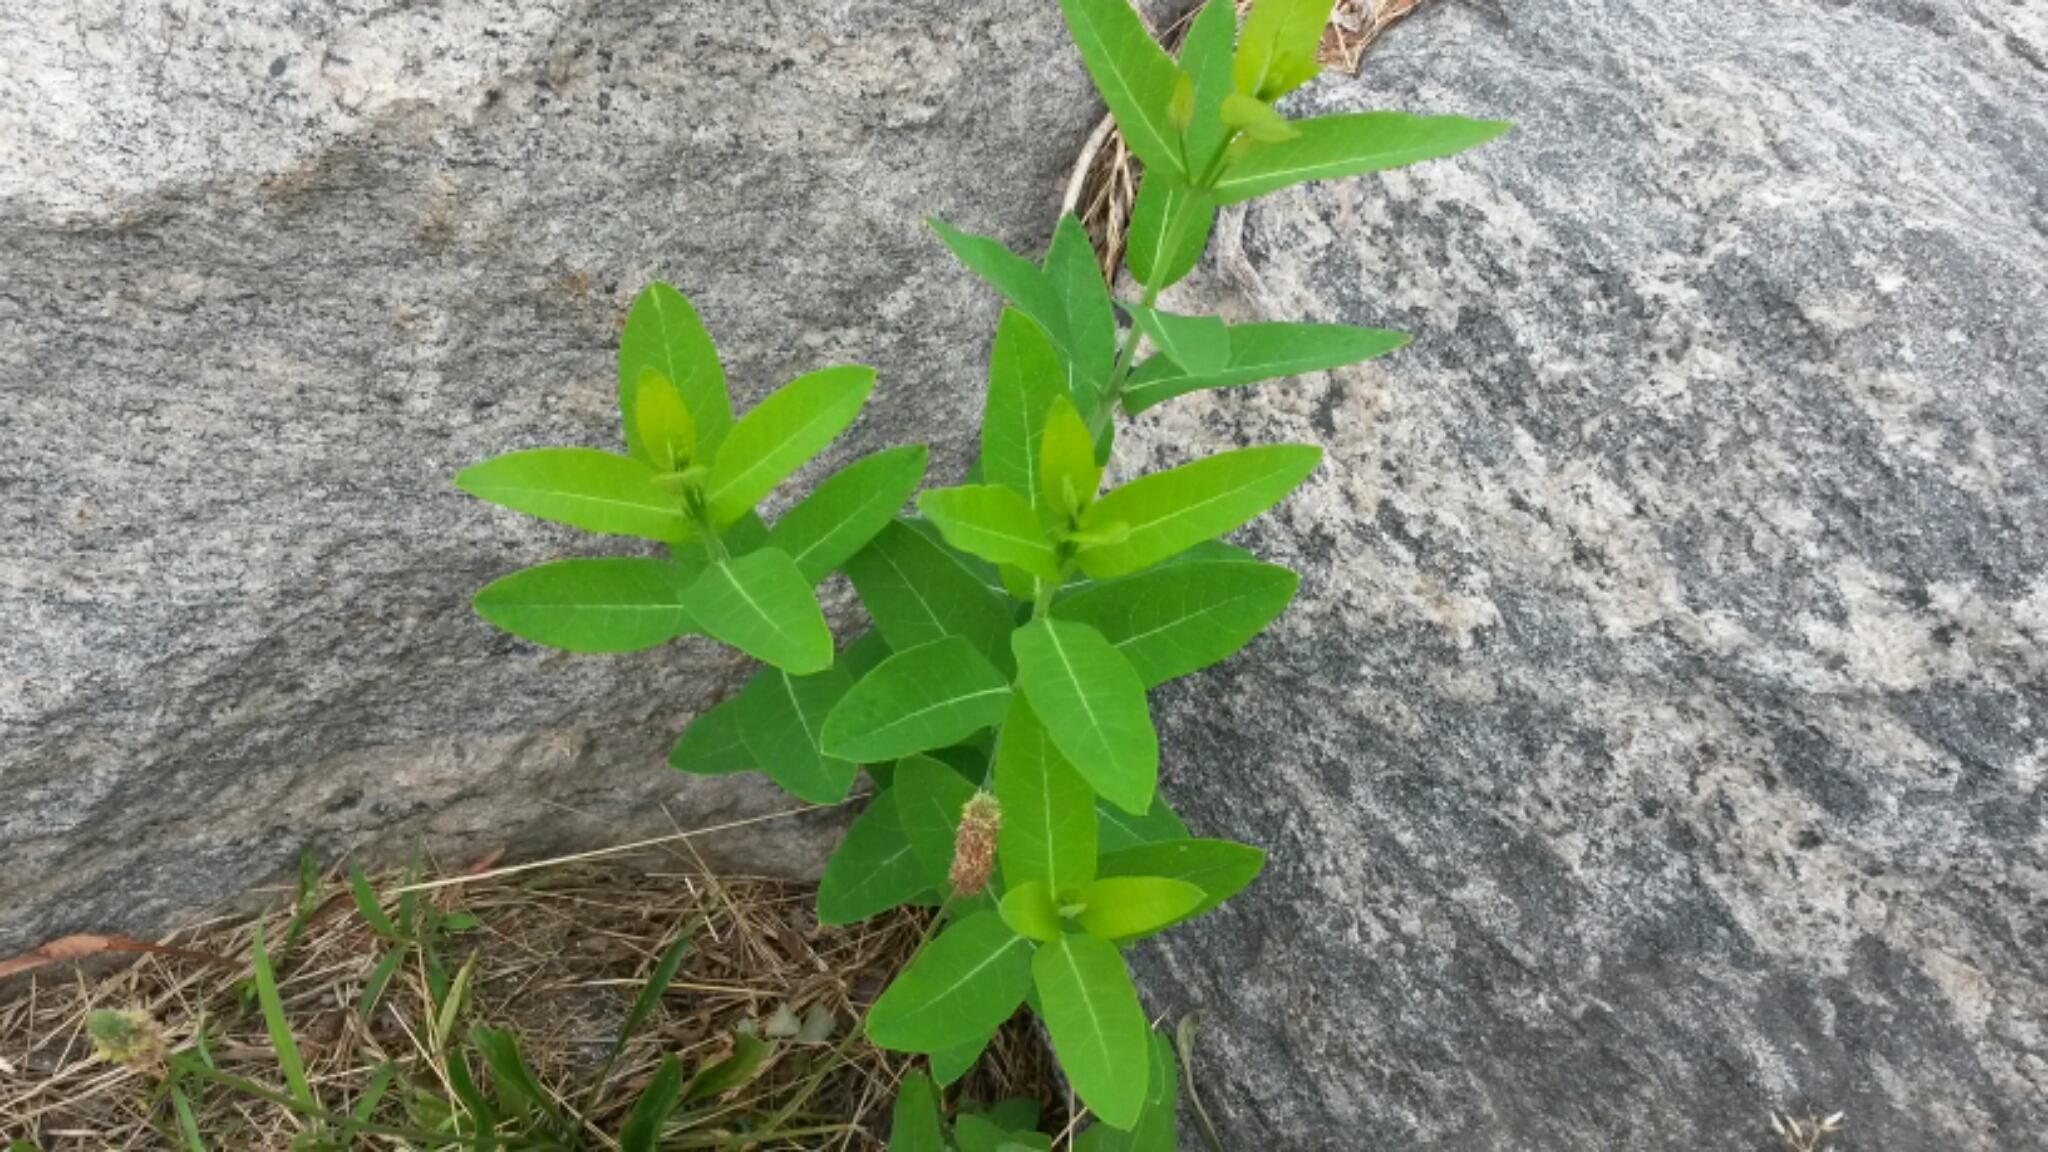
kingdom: Plantae
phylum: Tracheophyta
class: Magnoliopsida
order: Gentianales
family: Apocynaceae
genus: Apocynum
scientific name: Apocynum cannabinum
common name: Hemp dogbane
